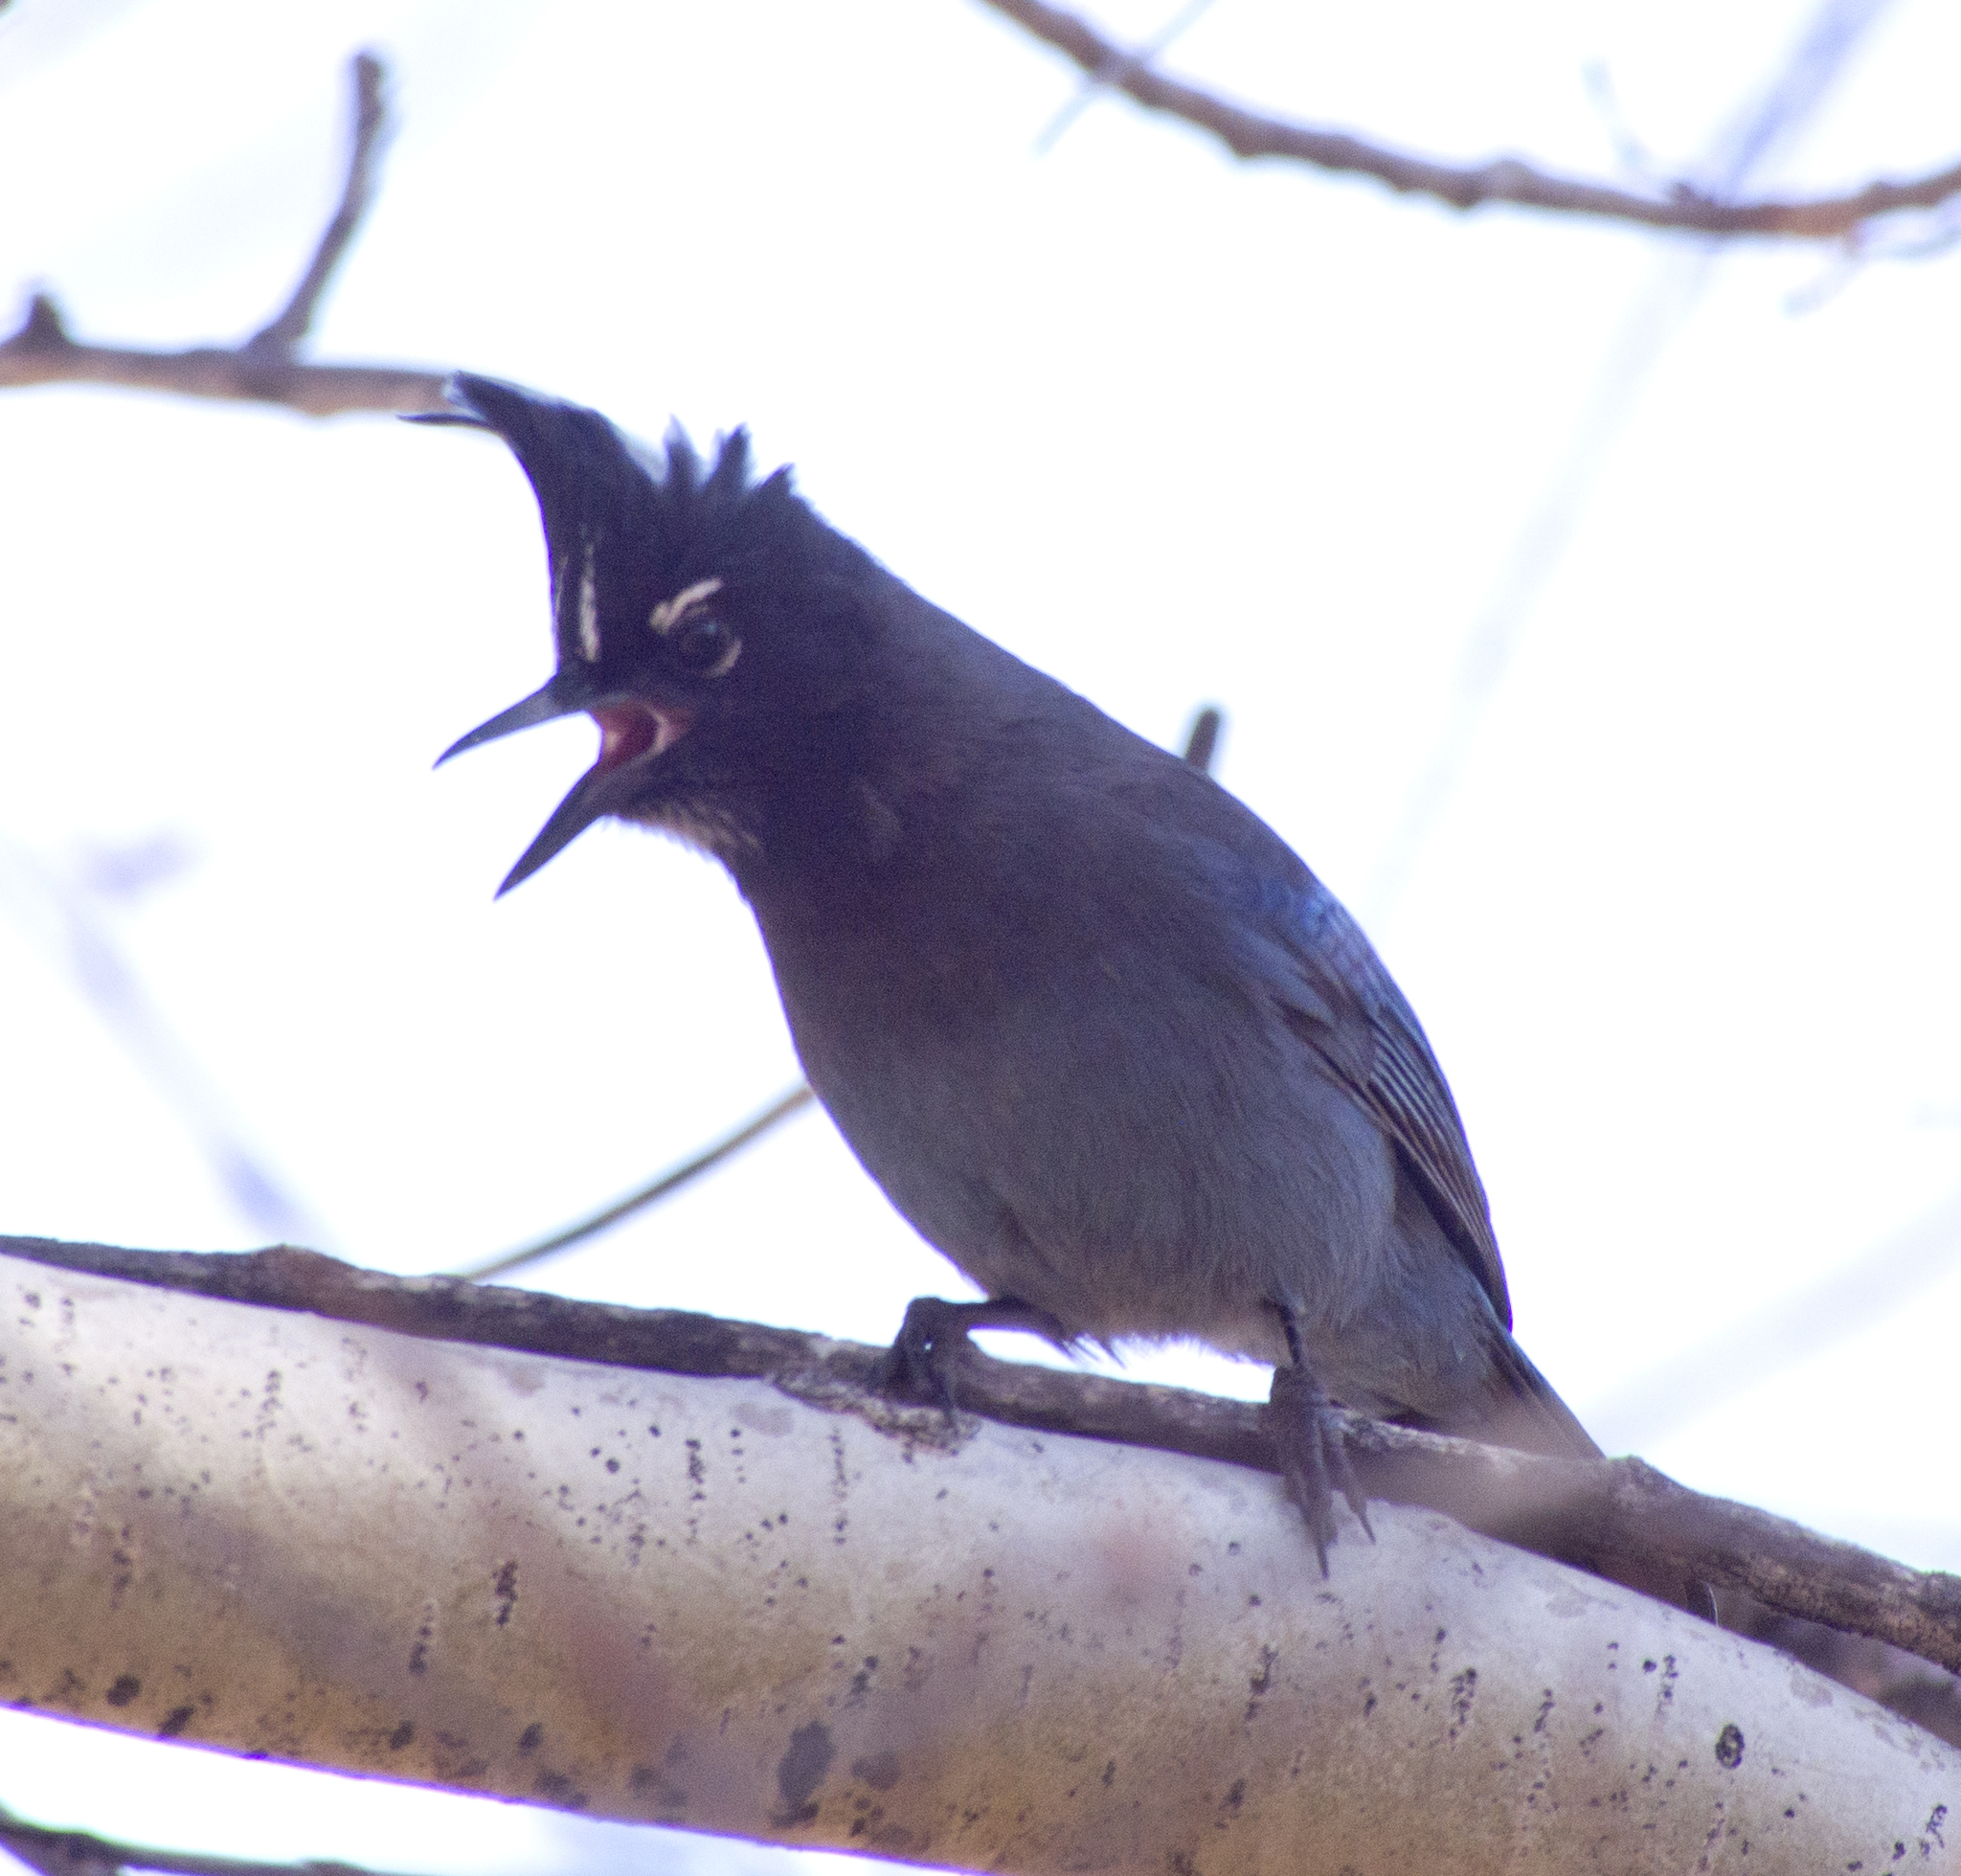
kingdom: Animalia
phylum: Chordata
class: Aves
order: Passeriformes
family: Corvidae
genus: Cyanocitta
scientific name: Cyanocitta stelleri
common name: Steller's jay
